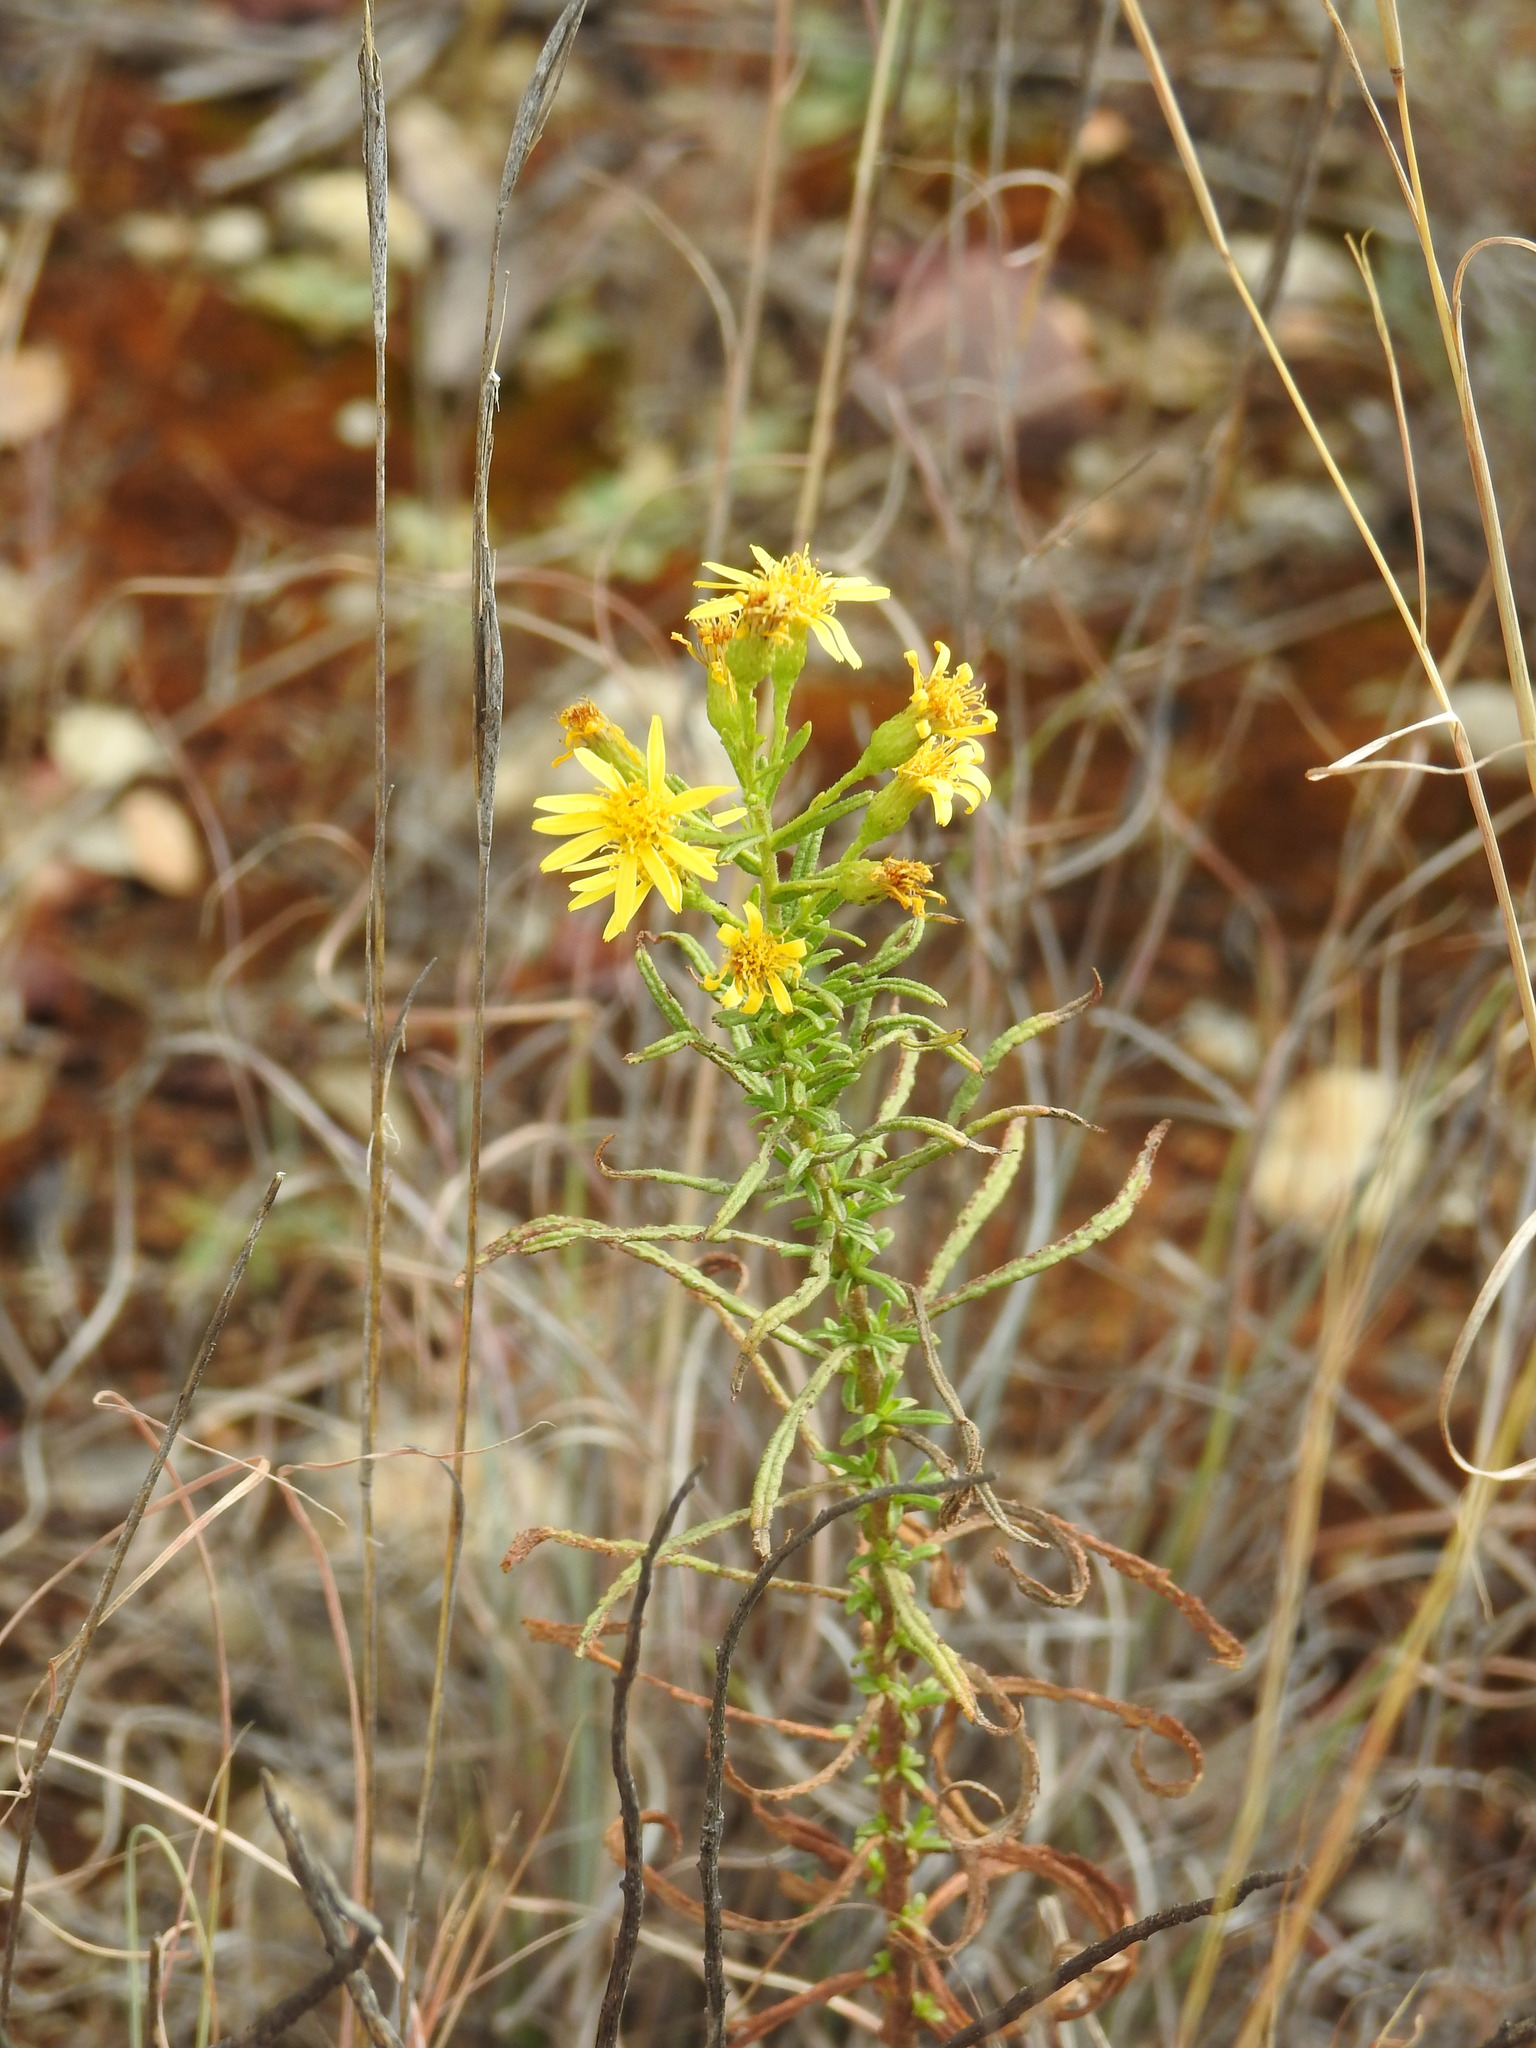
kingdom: Plantae
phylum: Tracheophyta
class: Magnoliopsida
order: Asterales
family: Asteraceae
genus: Dittrichia
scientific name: Dittrichia viscosa
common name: Woody fleabane
